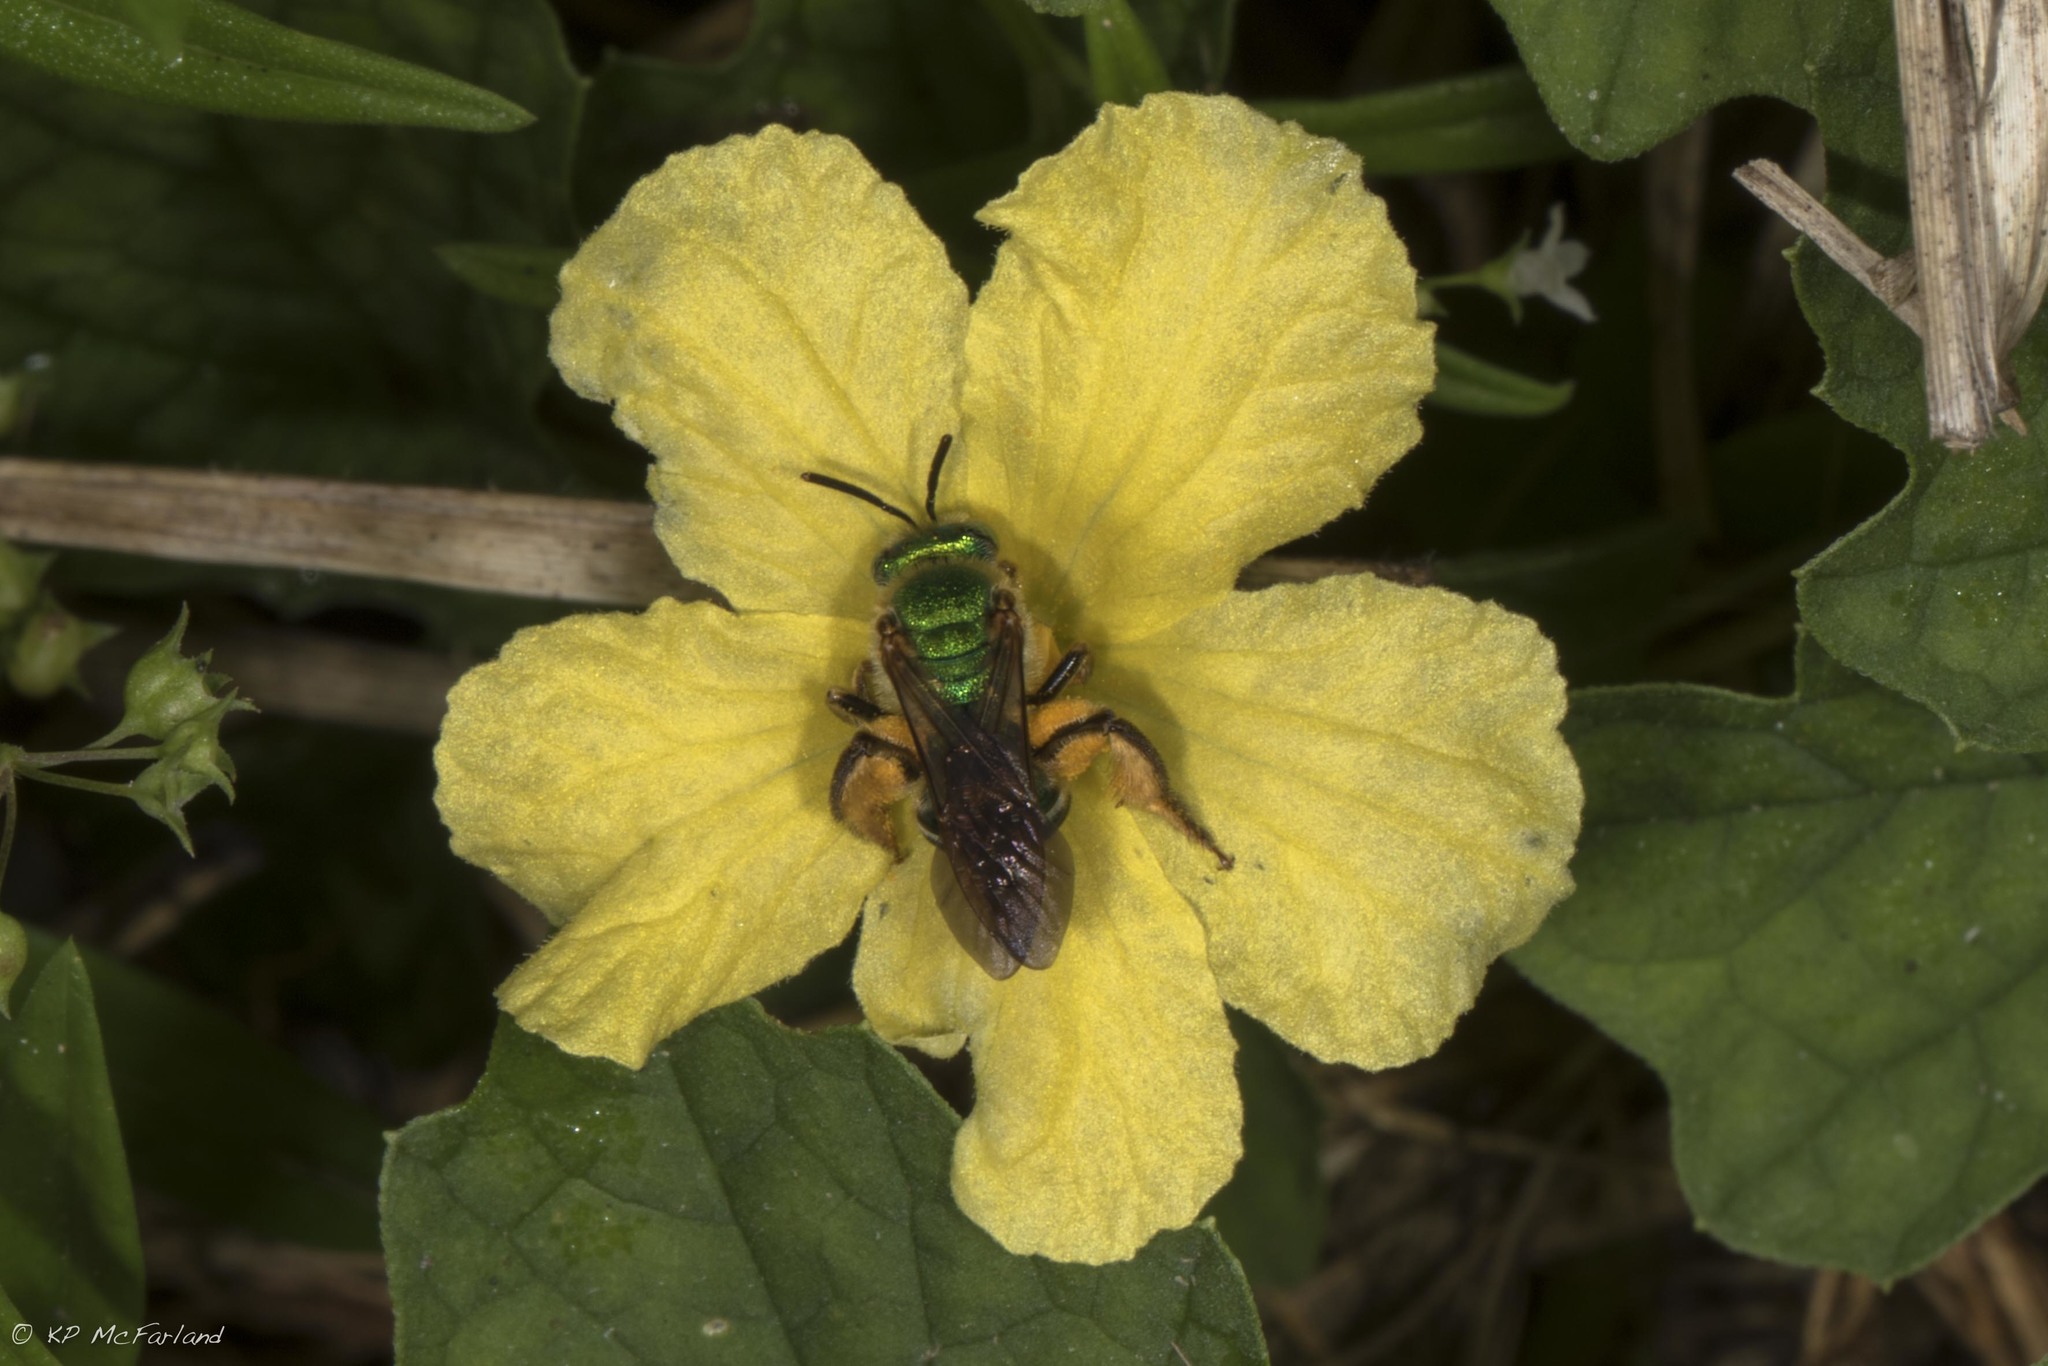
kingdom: Animalia
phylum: Arthropoda
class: Insecta
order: Hymenoptera
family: Halictidae
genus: Agapostemon
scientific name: Agapostemon splendens
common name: Brown-winged striped sweat bee
